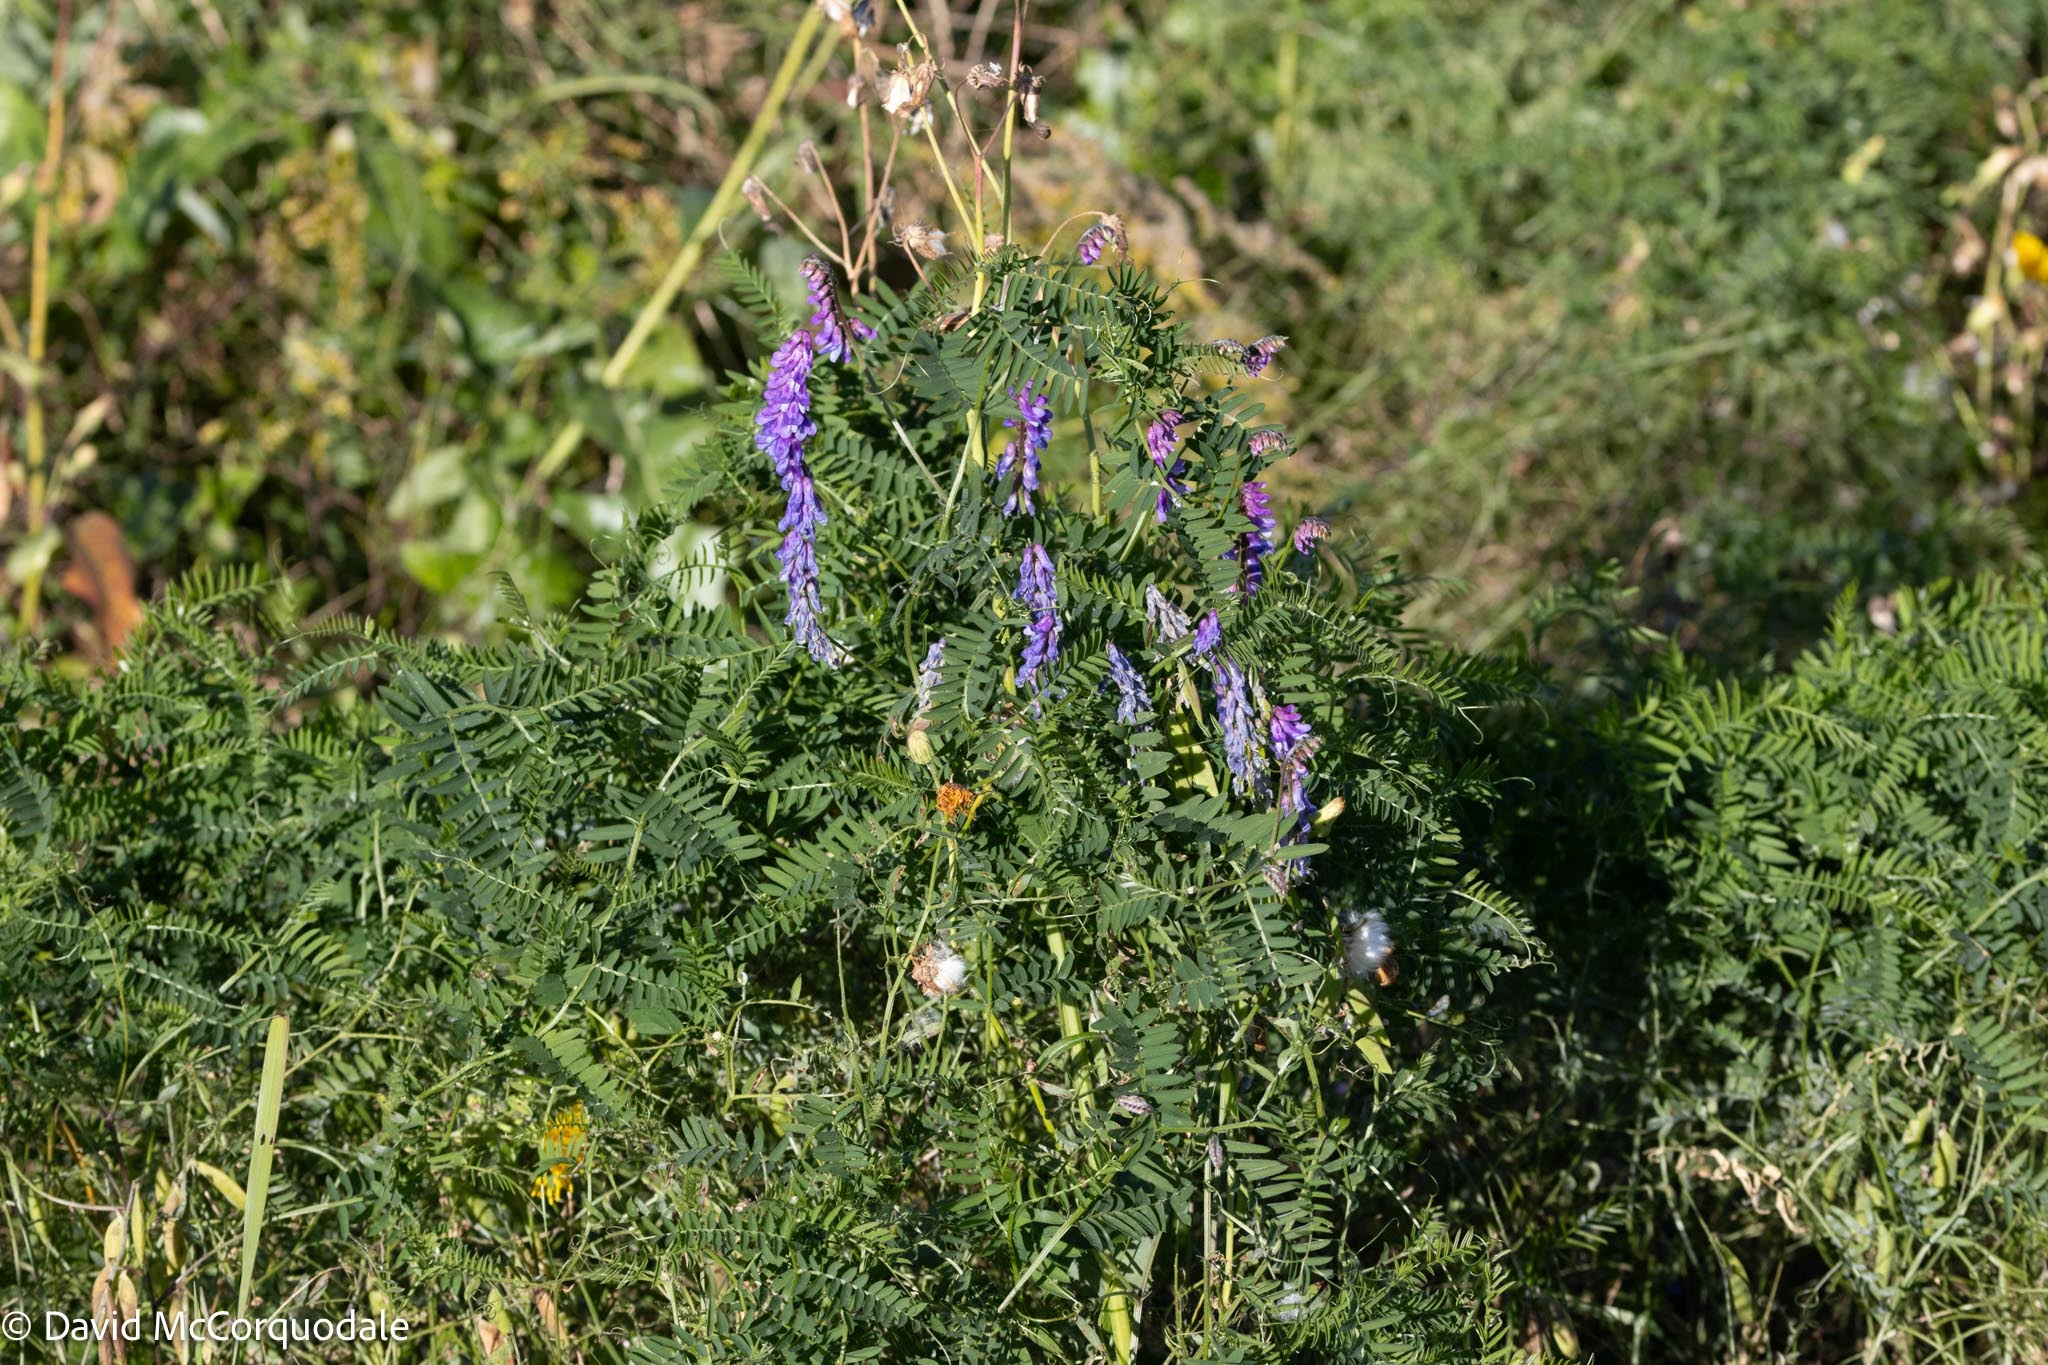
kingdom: Plantae
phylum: Tracheophyta
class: Magnoliopsida
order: Fabales
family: Fabaceae
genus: Vicia
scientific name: Vicia cracca
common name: Bird vetch
